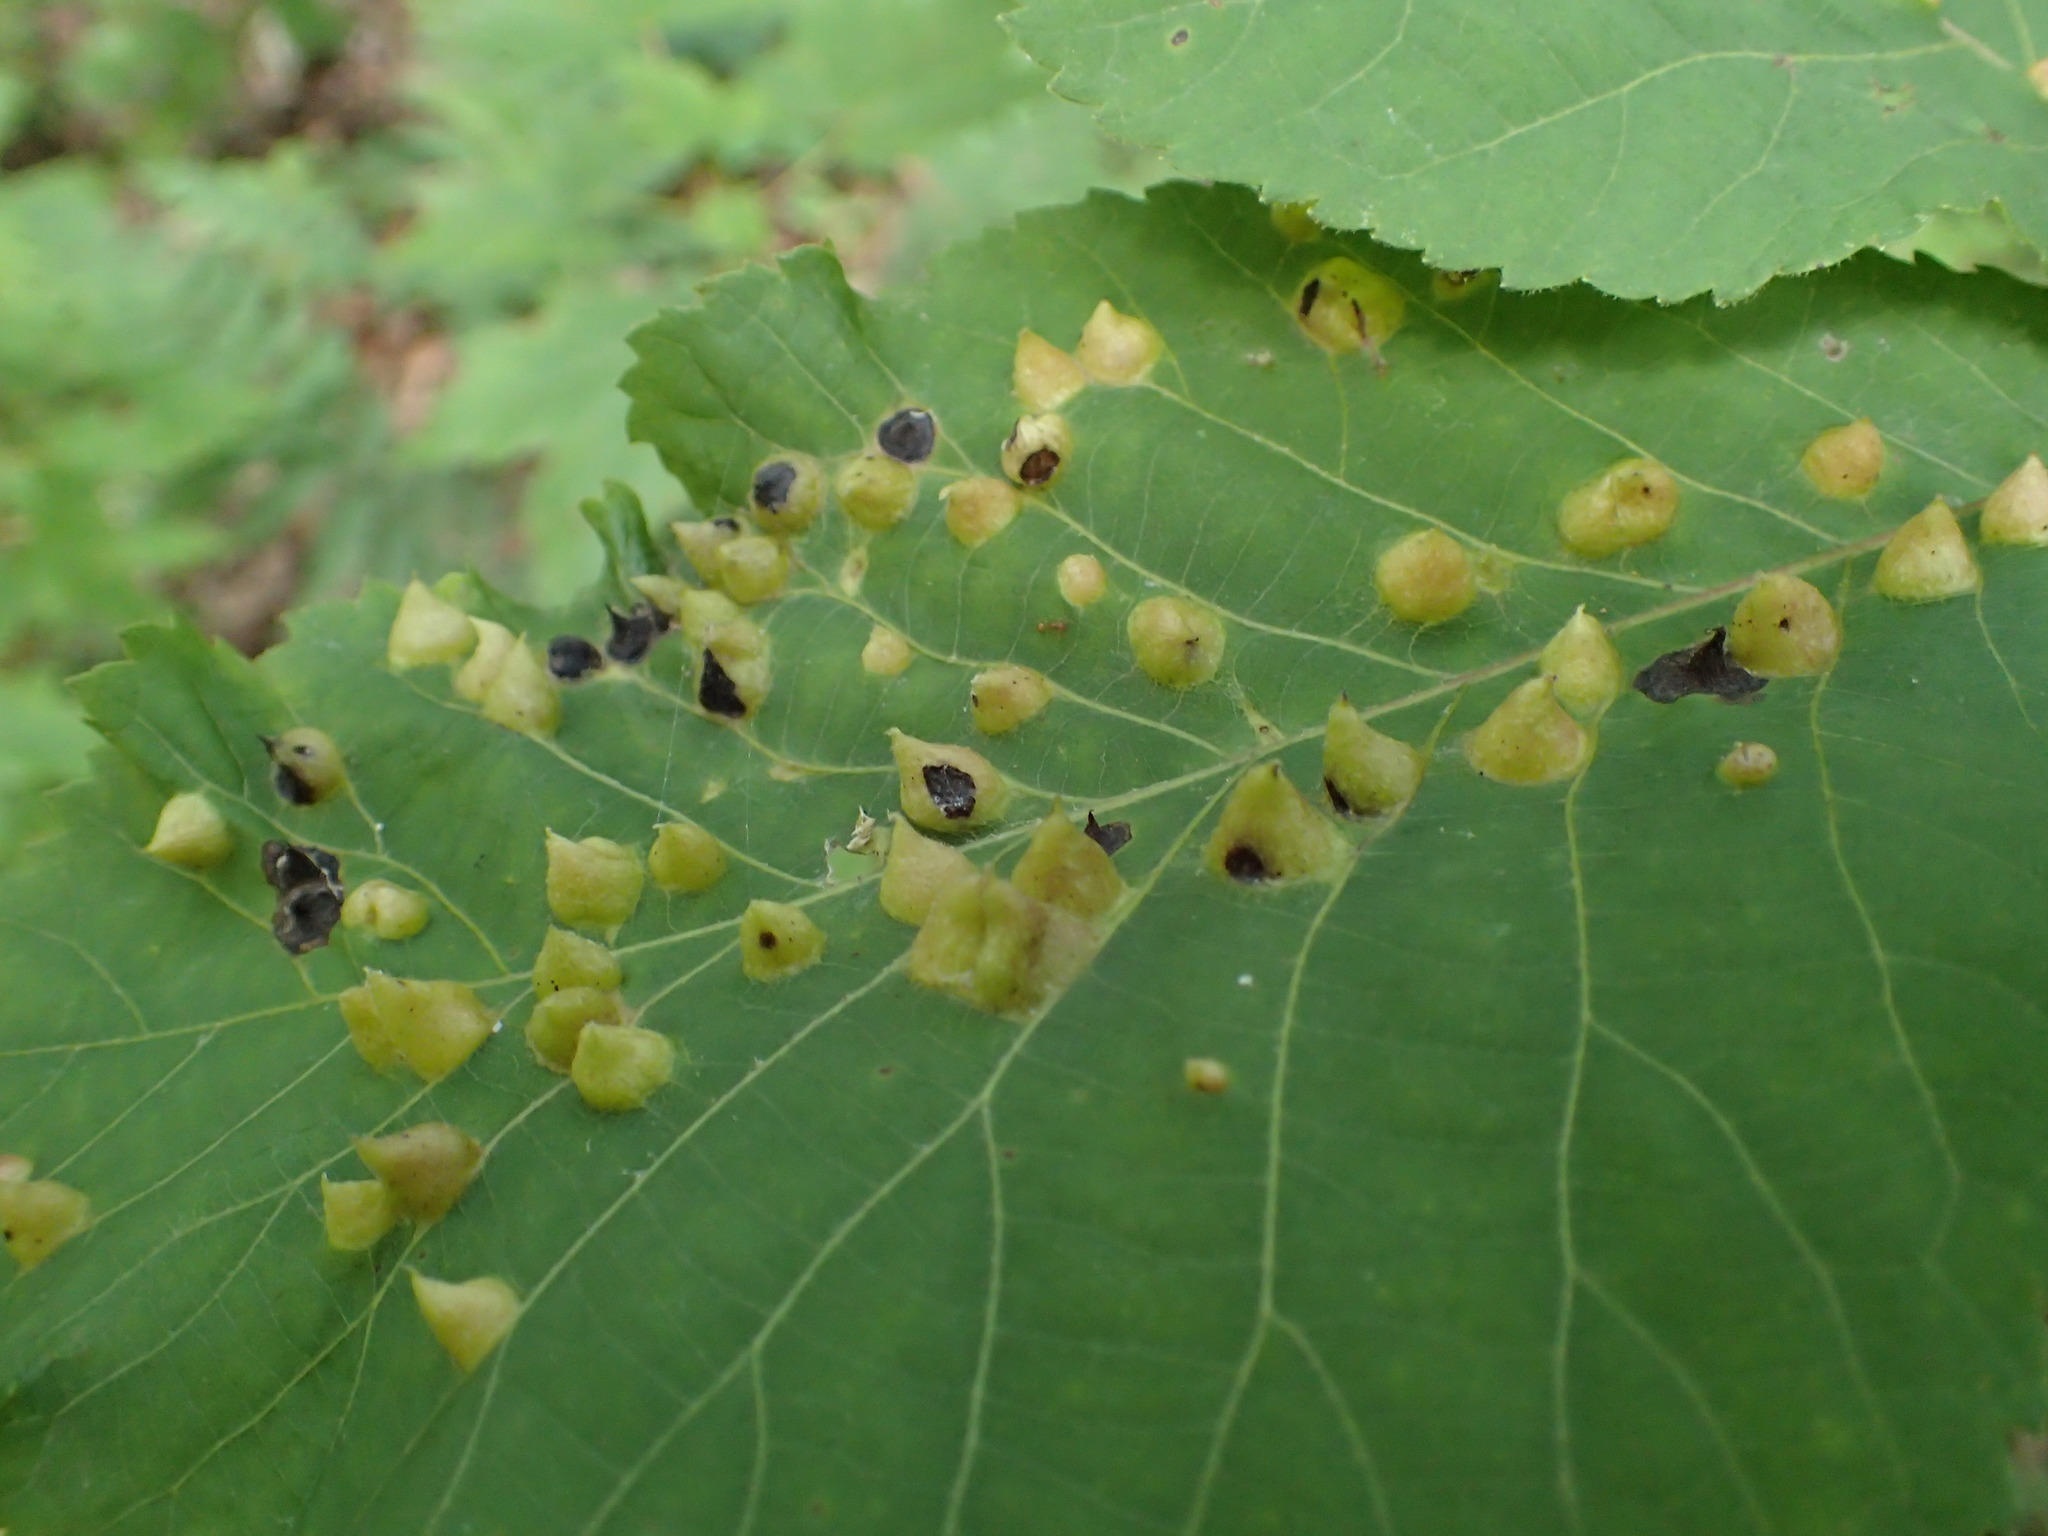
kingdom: Animalia
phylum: Arthropoda
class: Insecta
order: Hemiptera
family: Phylloxeridae
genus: Phylloxera
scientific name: Phylloxera caryaefallax
